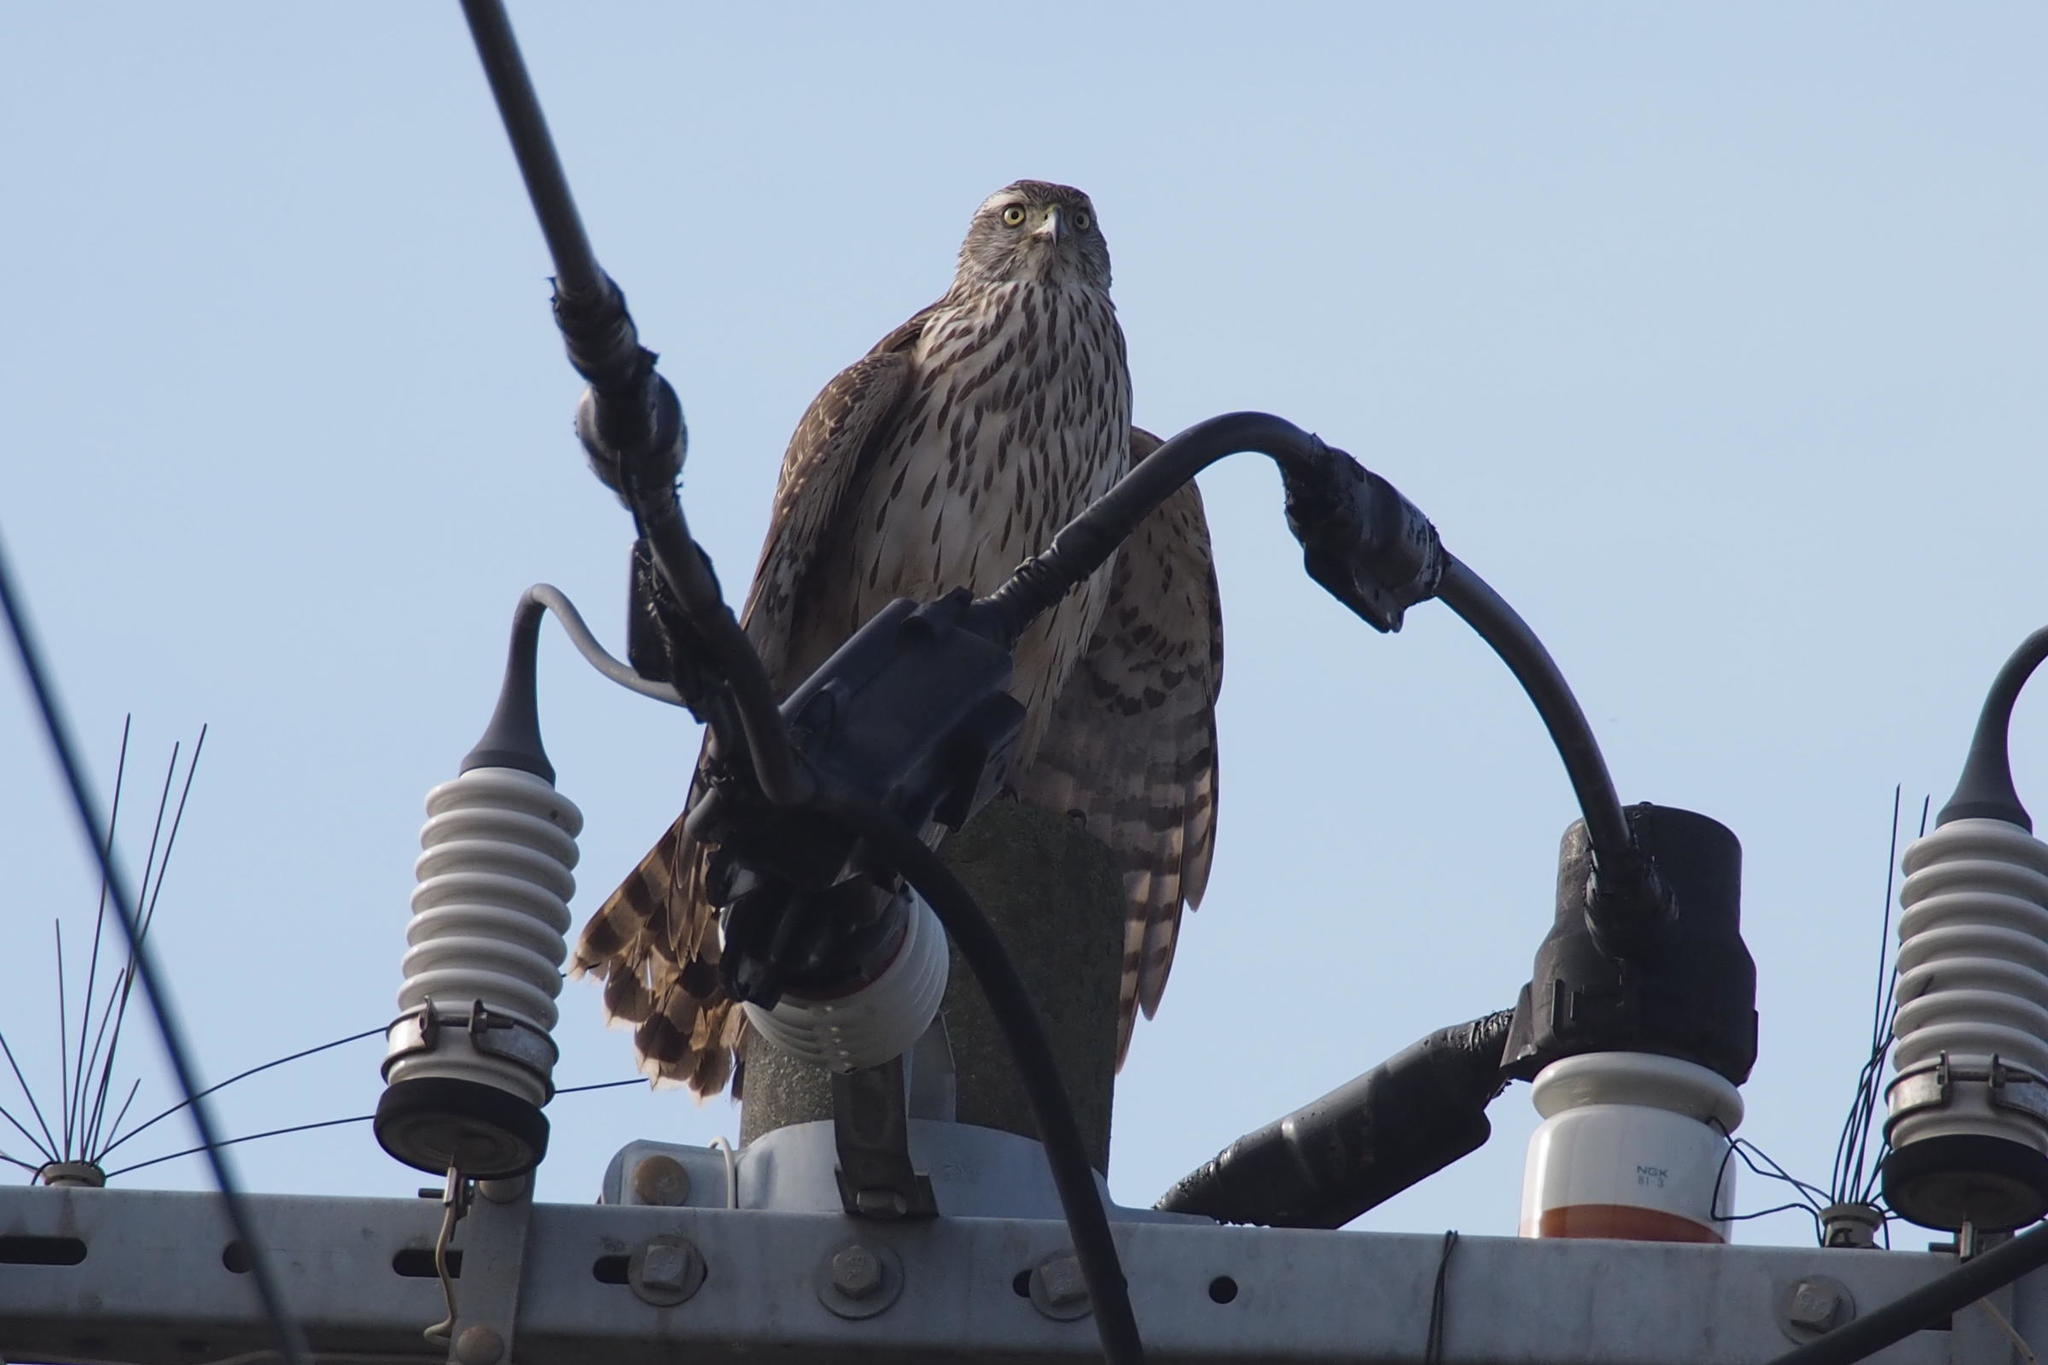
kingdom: Animalia
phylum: Chordata
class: Aves
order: Accipitriformes
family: Accipitridae
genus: Accipiter
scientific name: Accipiter gentilis
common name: Northern goshawk
